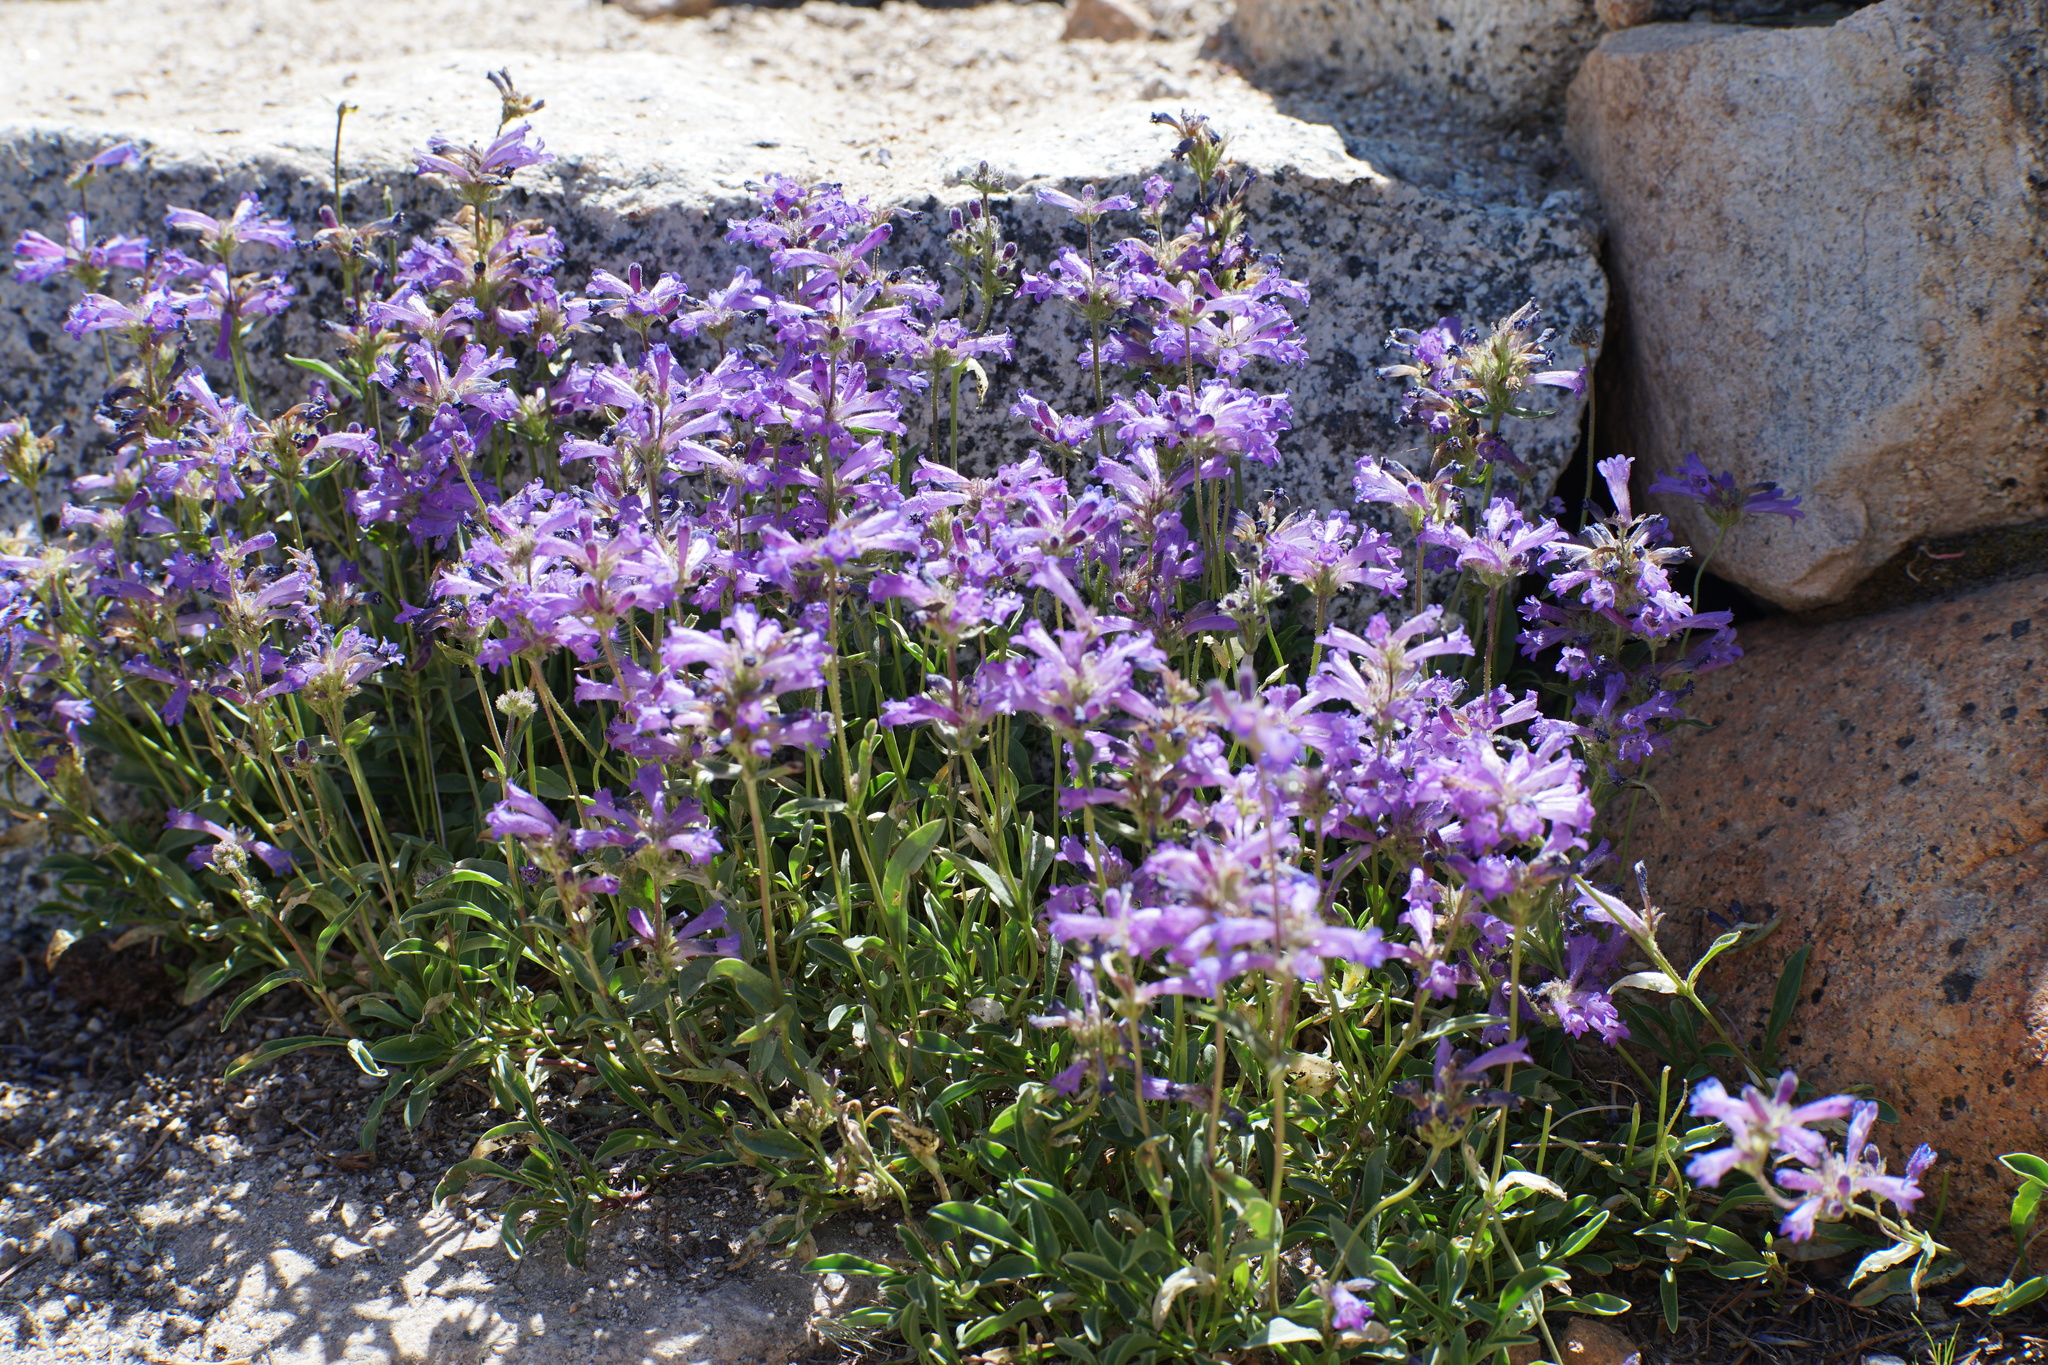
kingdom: Plantae
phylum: Tracheophyta
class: Magnoliopsida
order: Lamiales
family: Plantaginaceae
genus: Penstemon
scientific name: Penstemon heterodoxus
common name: Sierran penstemon
